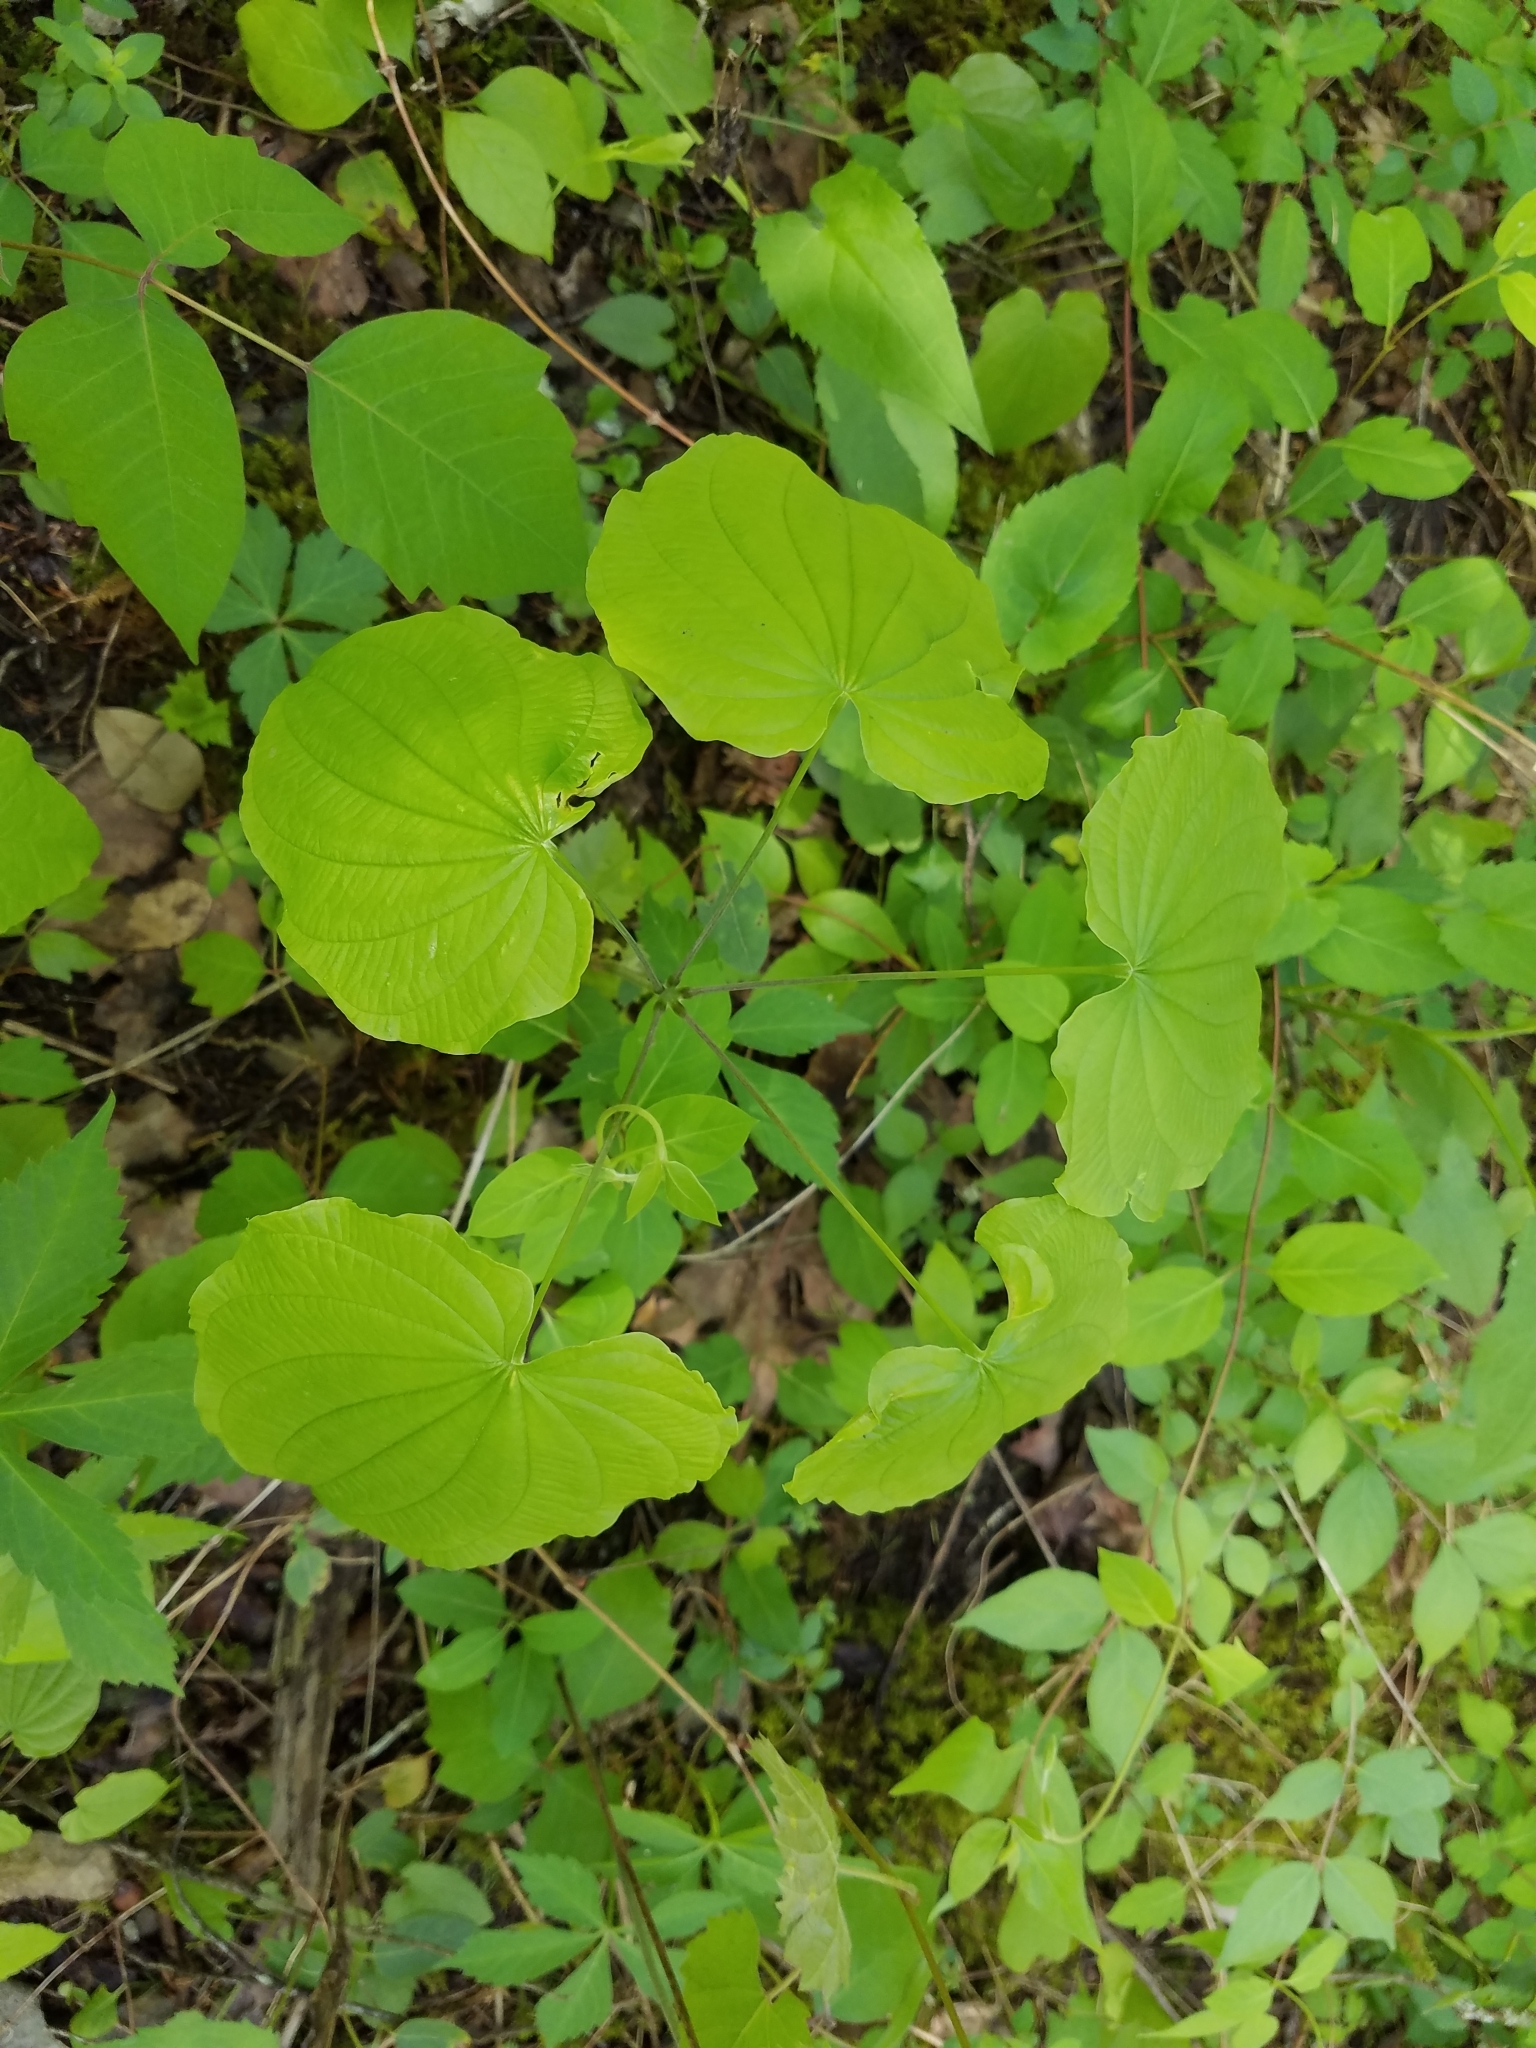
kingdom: Plantae
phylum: Tracheophyta
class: Liliopsida
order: Dioscoreales
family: Dioscoreaceae
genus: Dioscorea
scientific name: Dioscorea villosa
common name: Wild yam
